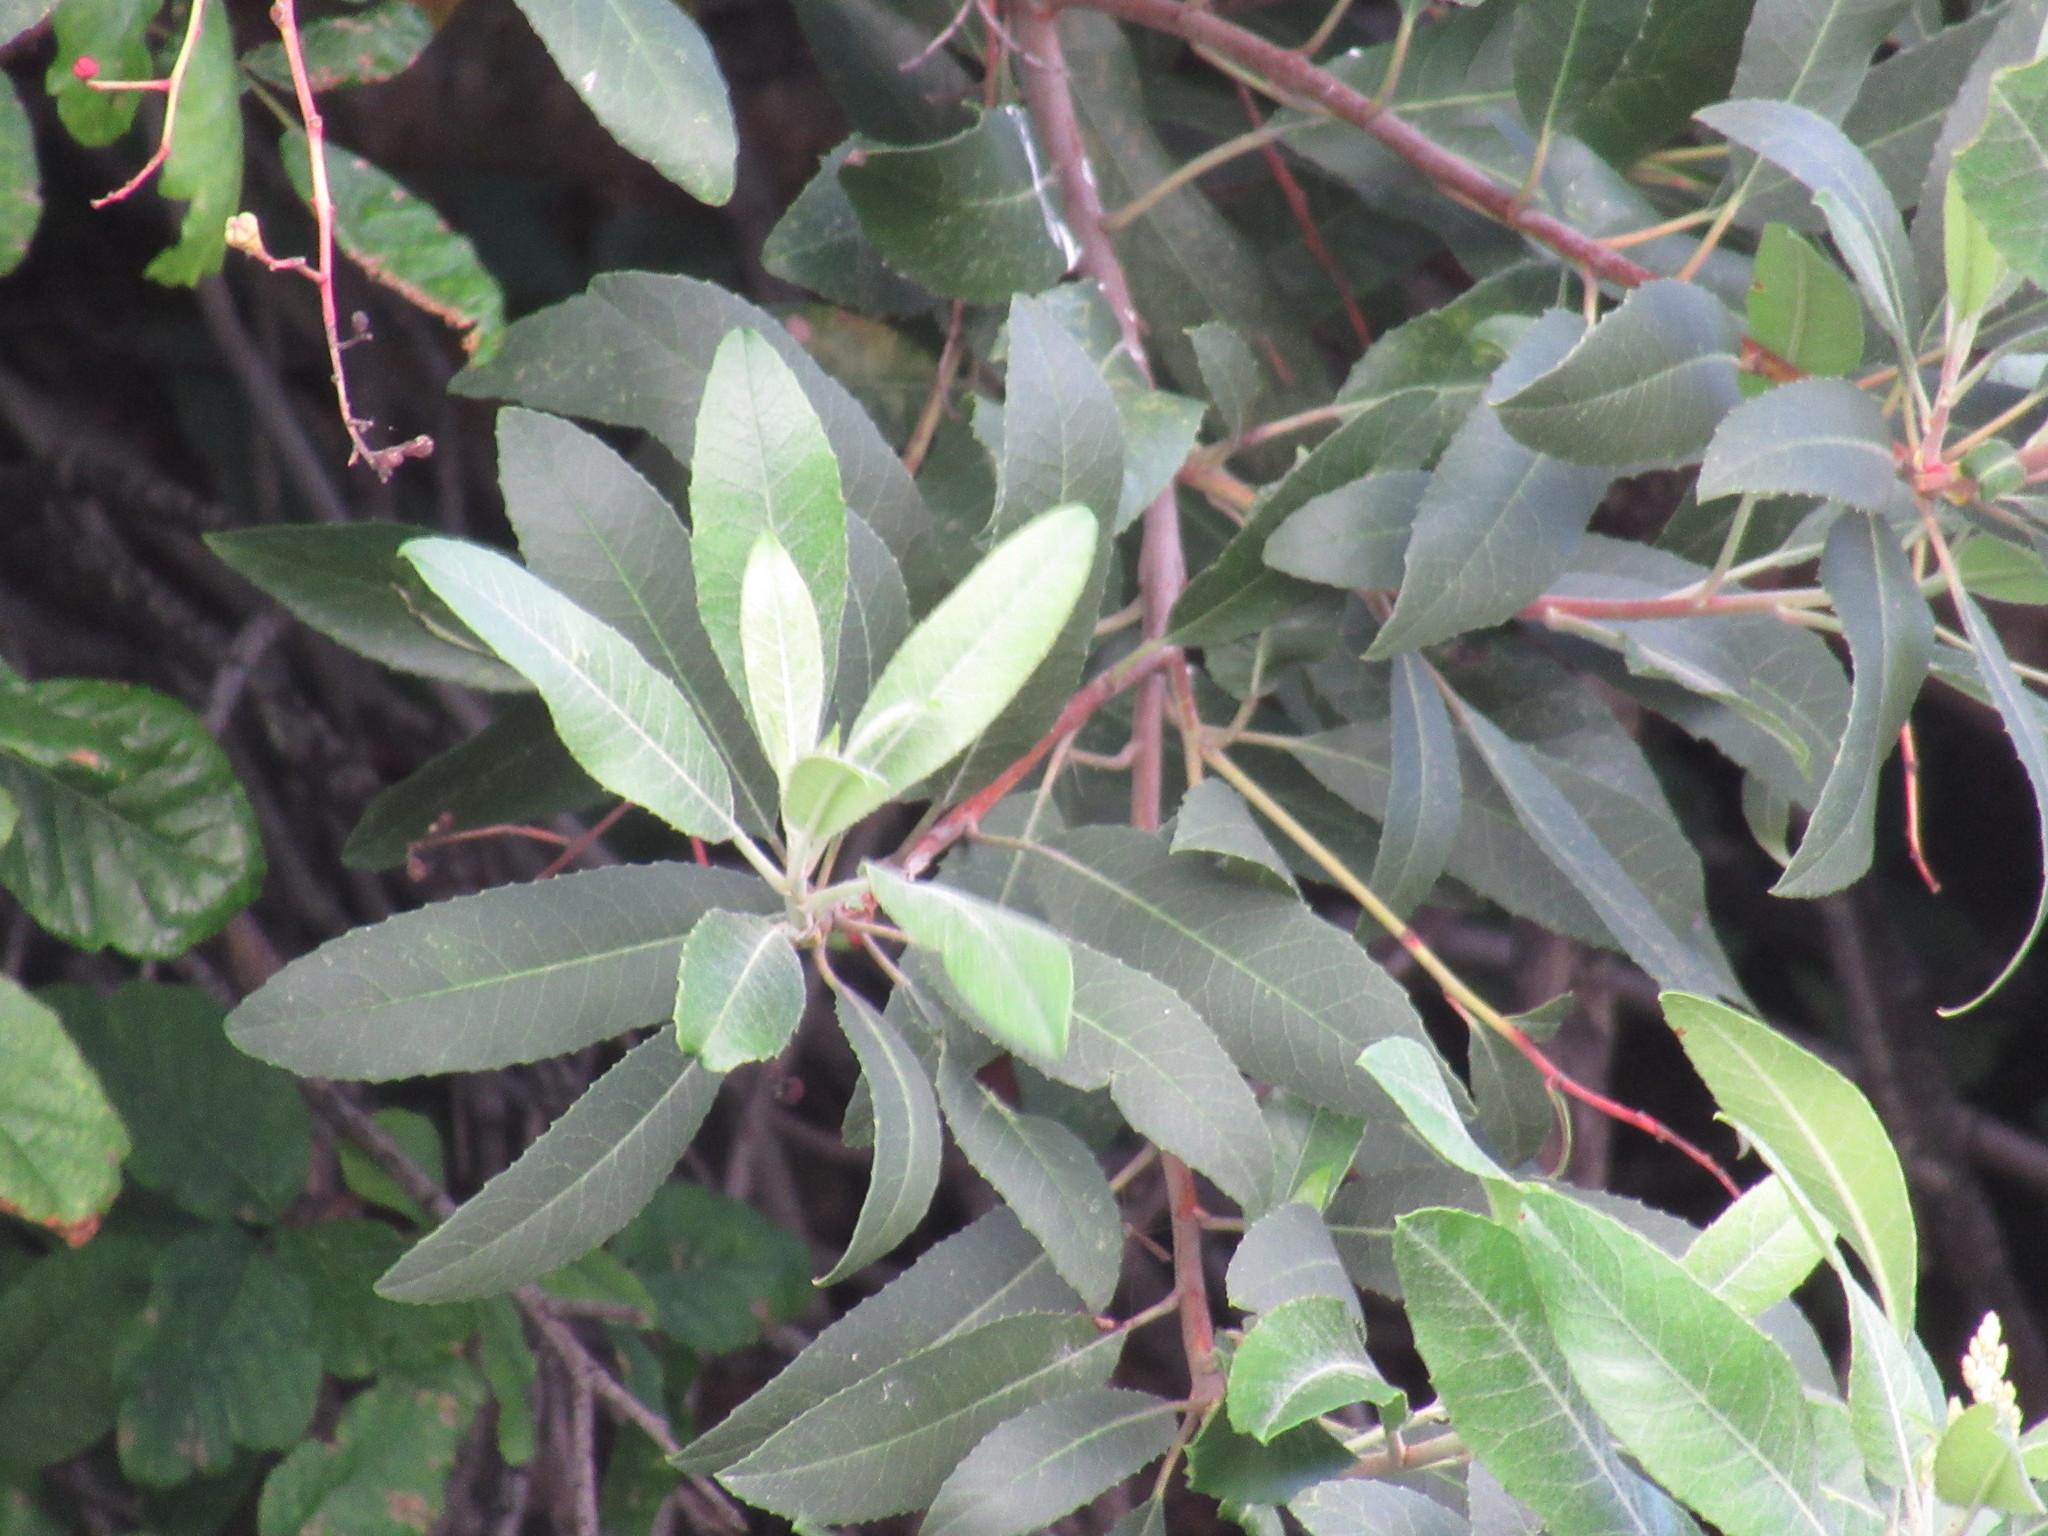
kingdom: Plantae
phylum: Tracheophyta
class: Magnoliopsida
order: Rosales
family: Rosaceae
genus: Heteromeles
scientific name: Heteromeles arbutifolia
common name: California-holly
